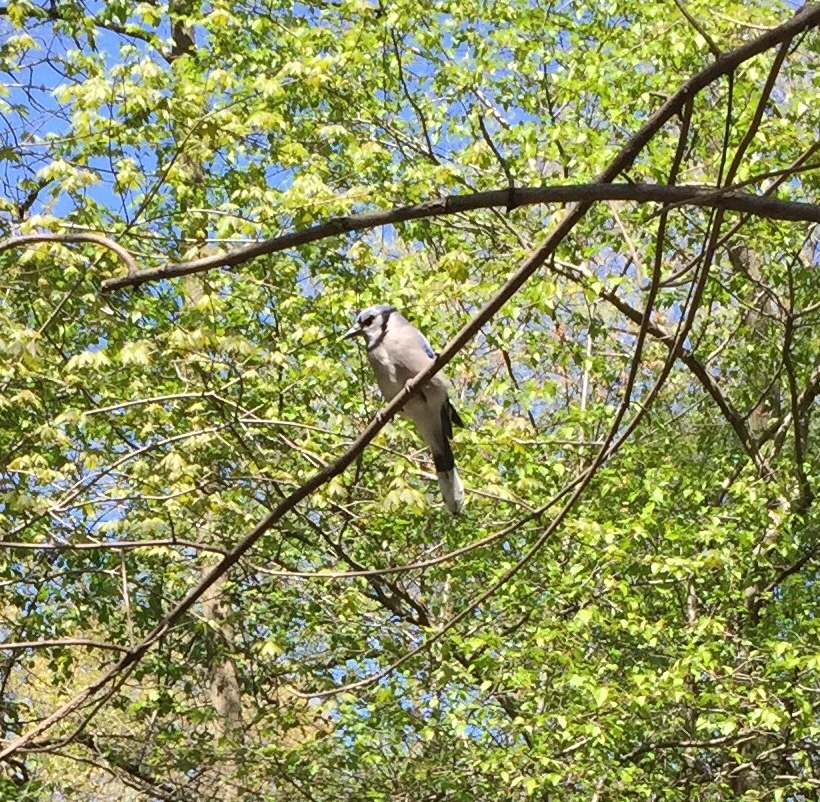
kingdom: Animalia
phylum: Chordata
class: Aves
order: Passeriformes
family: Corvidae
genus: Cyanocitta
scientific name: Cyanocitta cristata
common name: Blue jay
